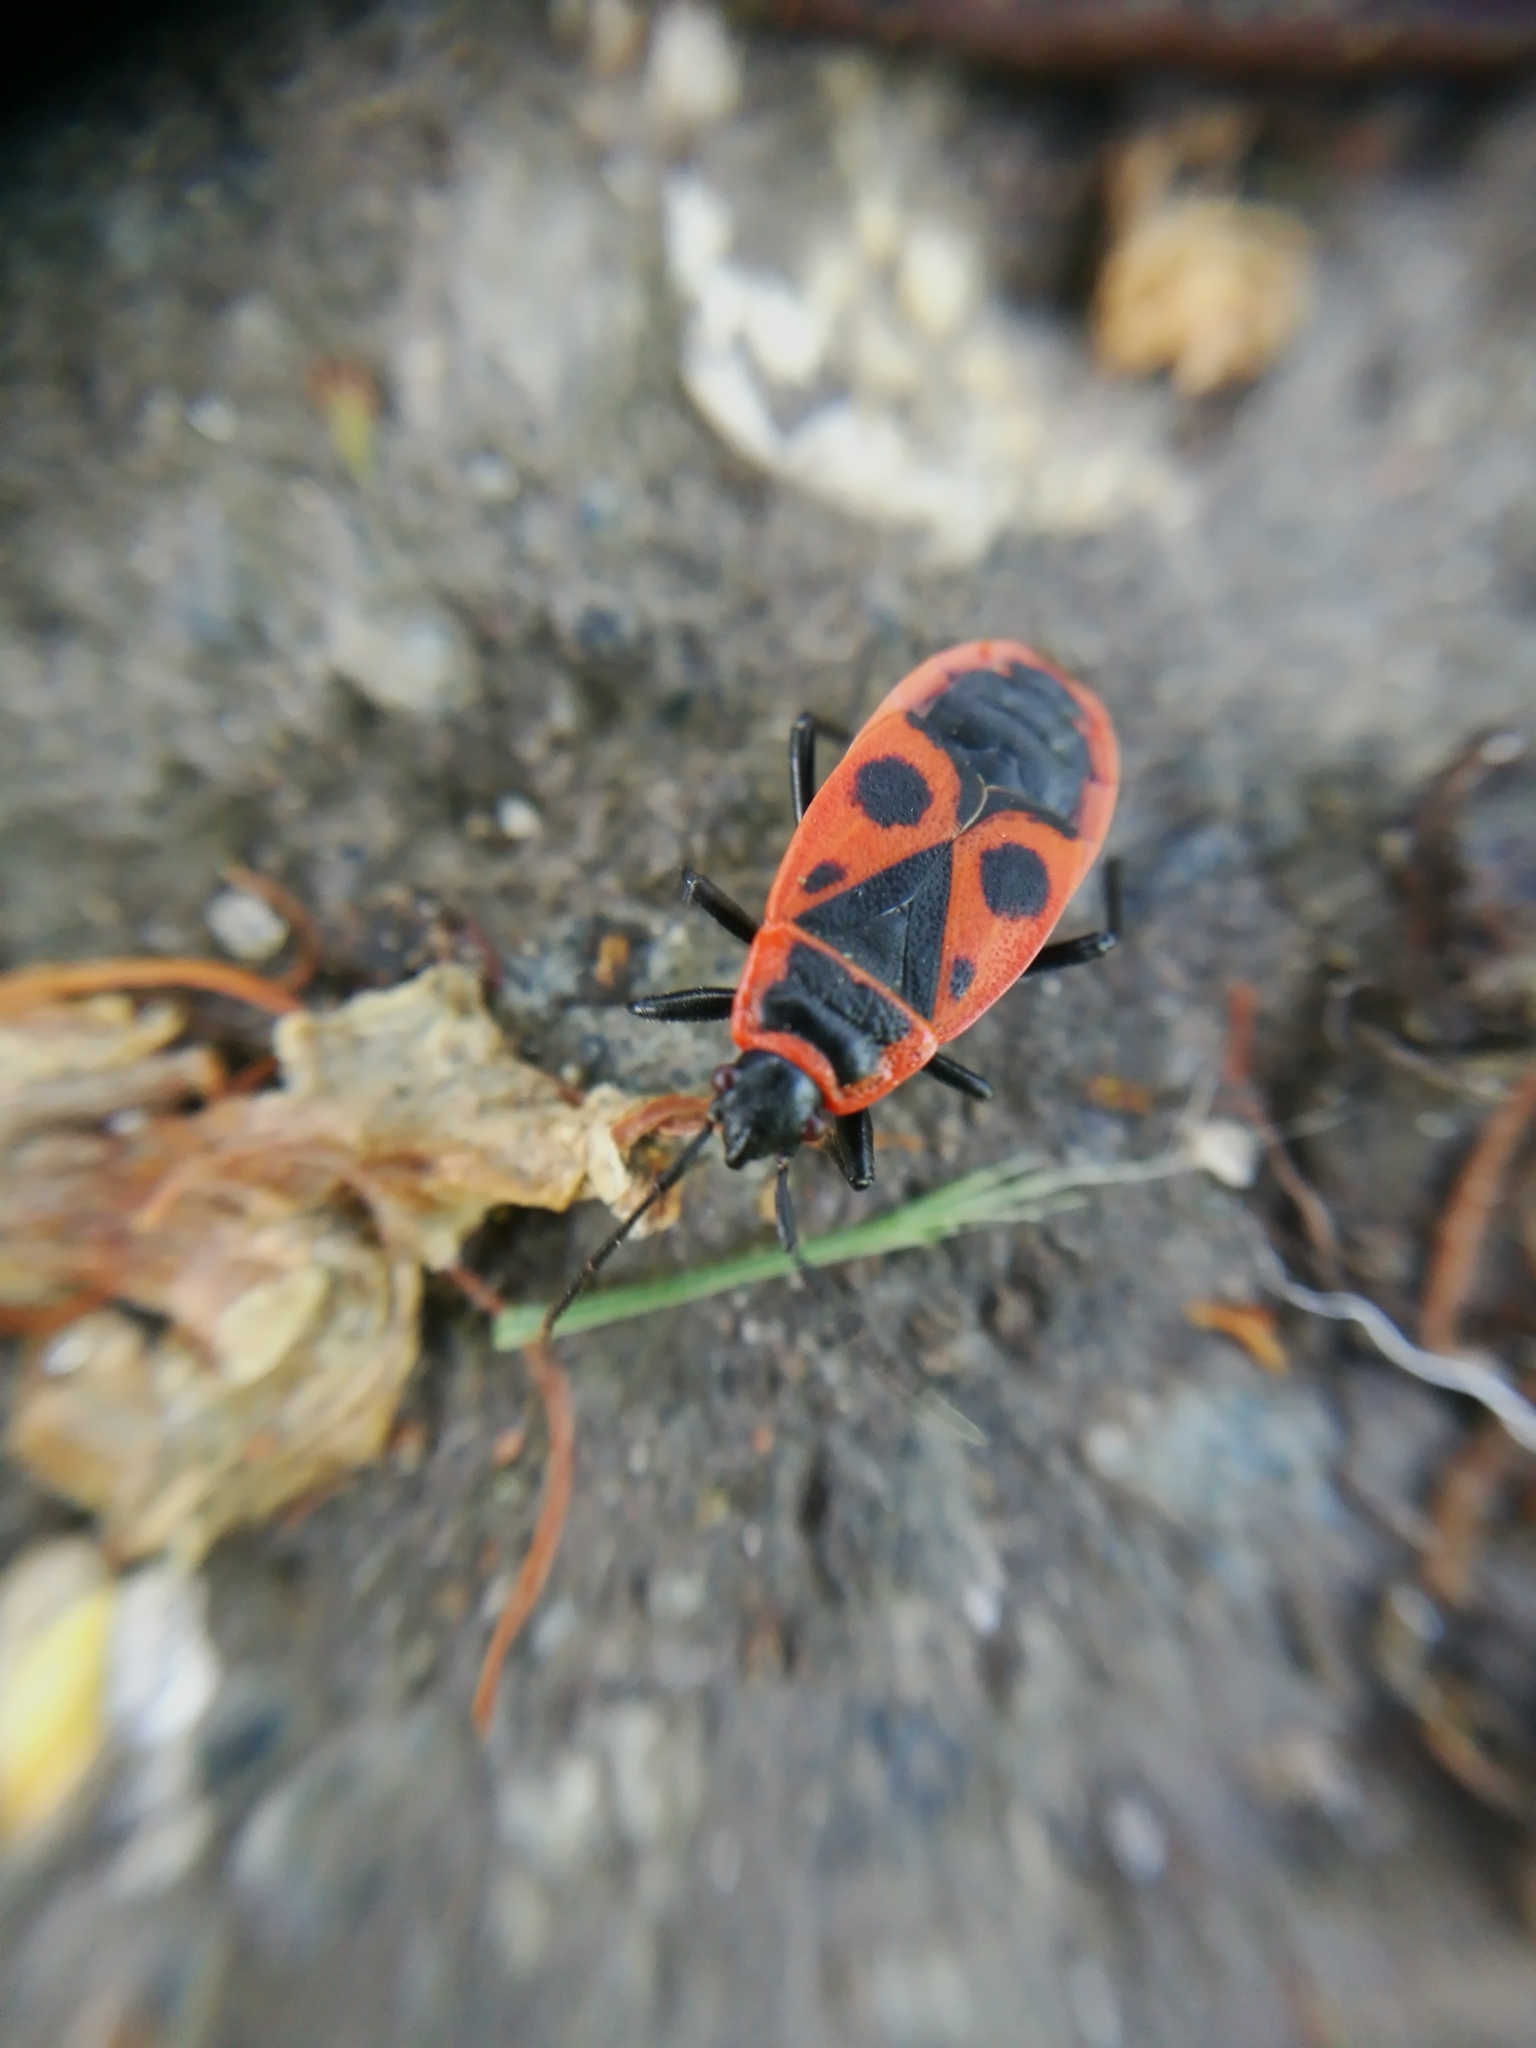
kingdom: Animalia
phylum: Arthropoda
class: Insecta
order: Hemiptera
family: Pyrrhocoridae
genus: Pyrrhocoris
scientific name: Pyrrhocoris apterus
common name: Firebug
